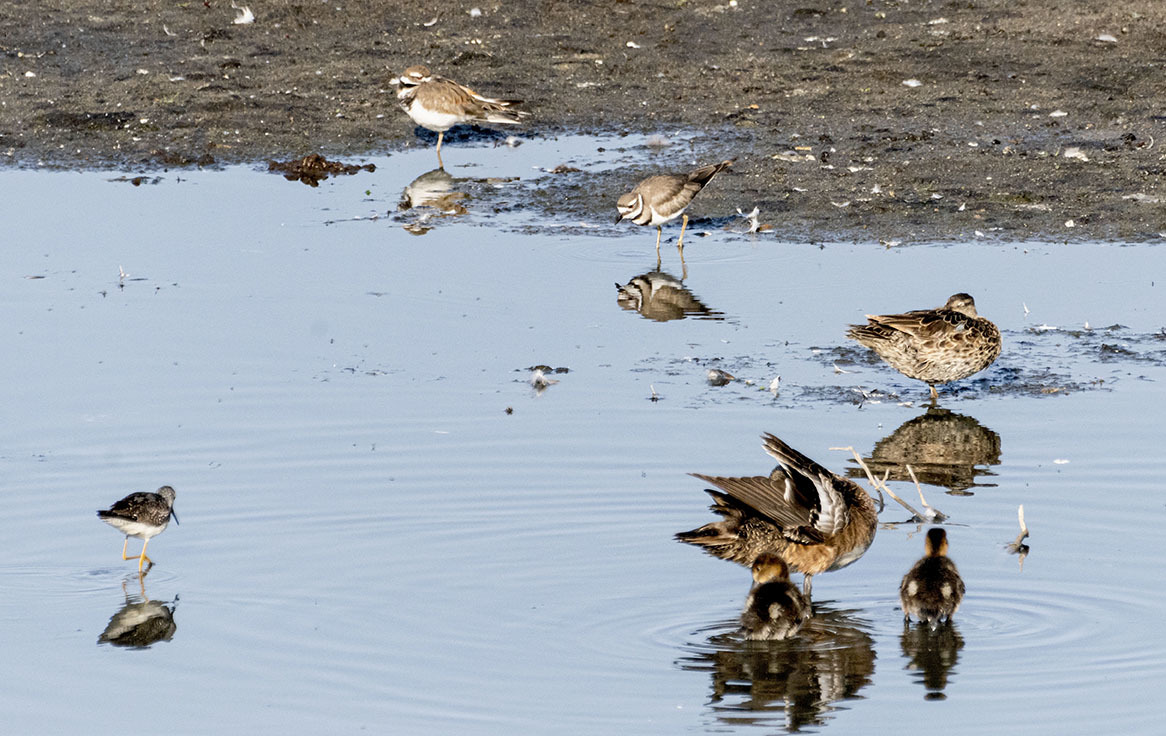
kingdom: Animalia
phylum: Chordata
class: Aves
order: Charadriiformes
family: Charadriidae
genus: Charadrius
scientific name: Charadrius vociferus
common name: Killdeer
